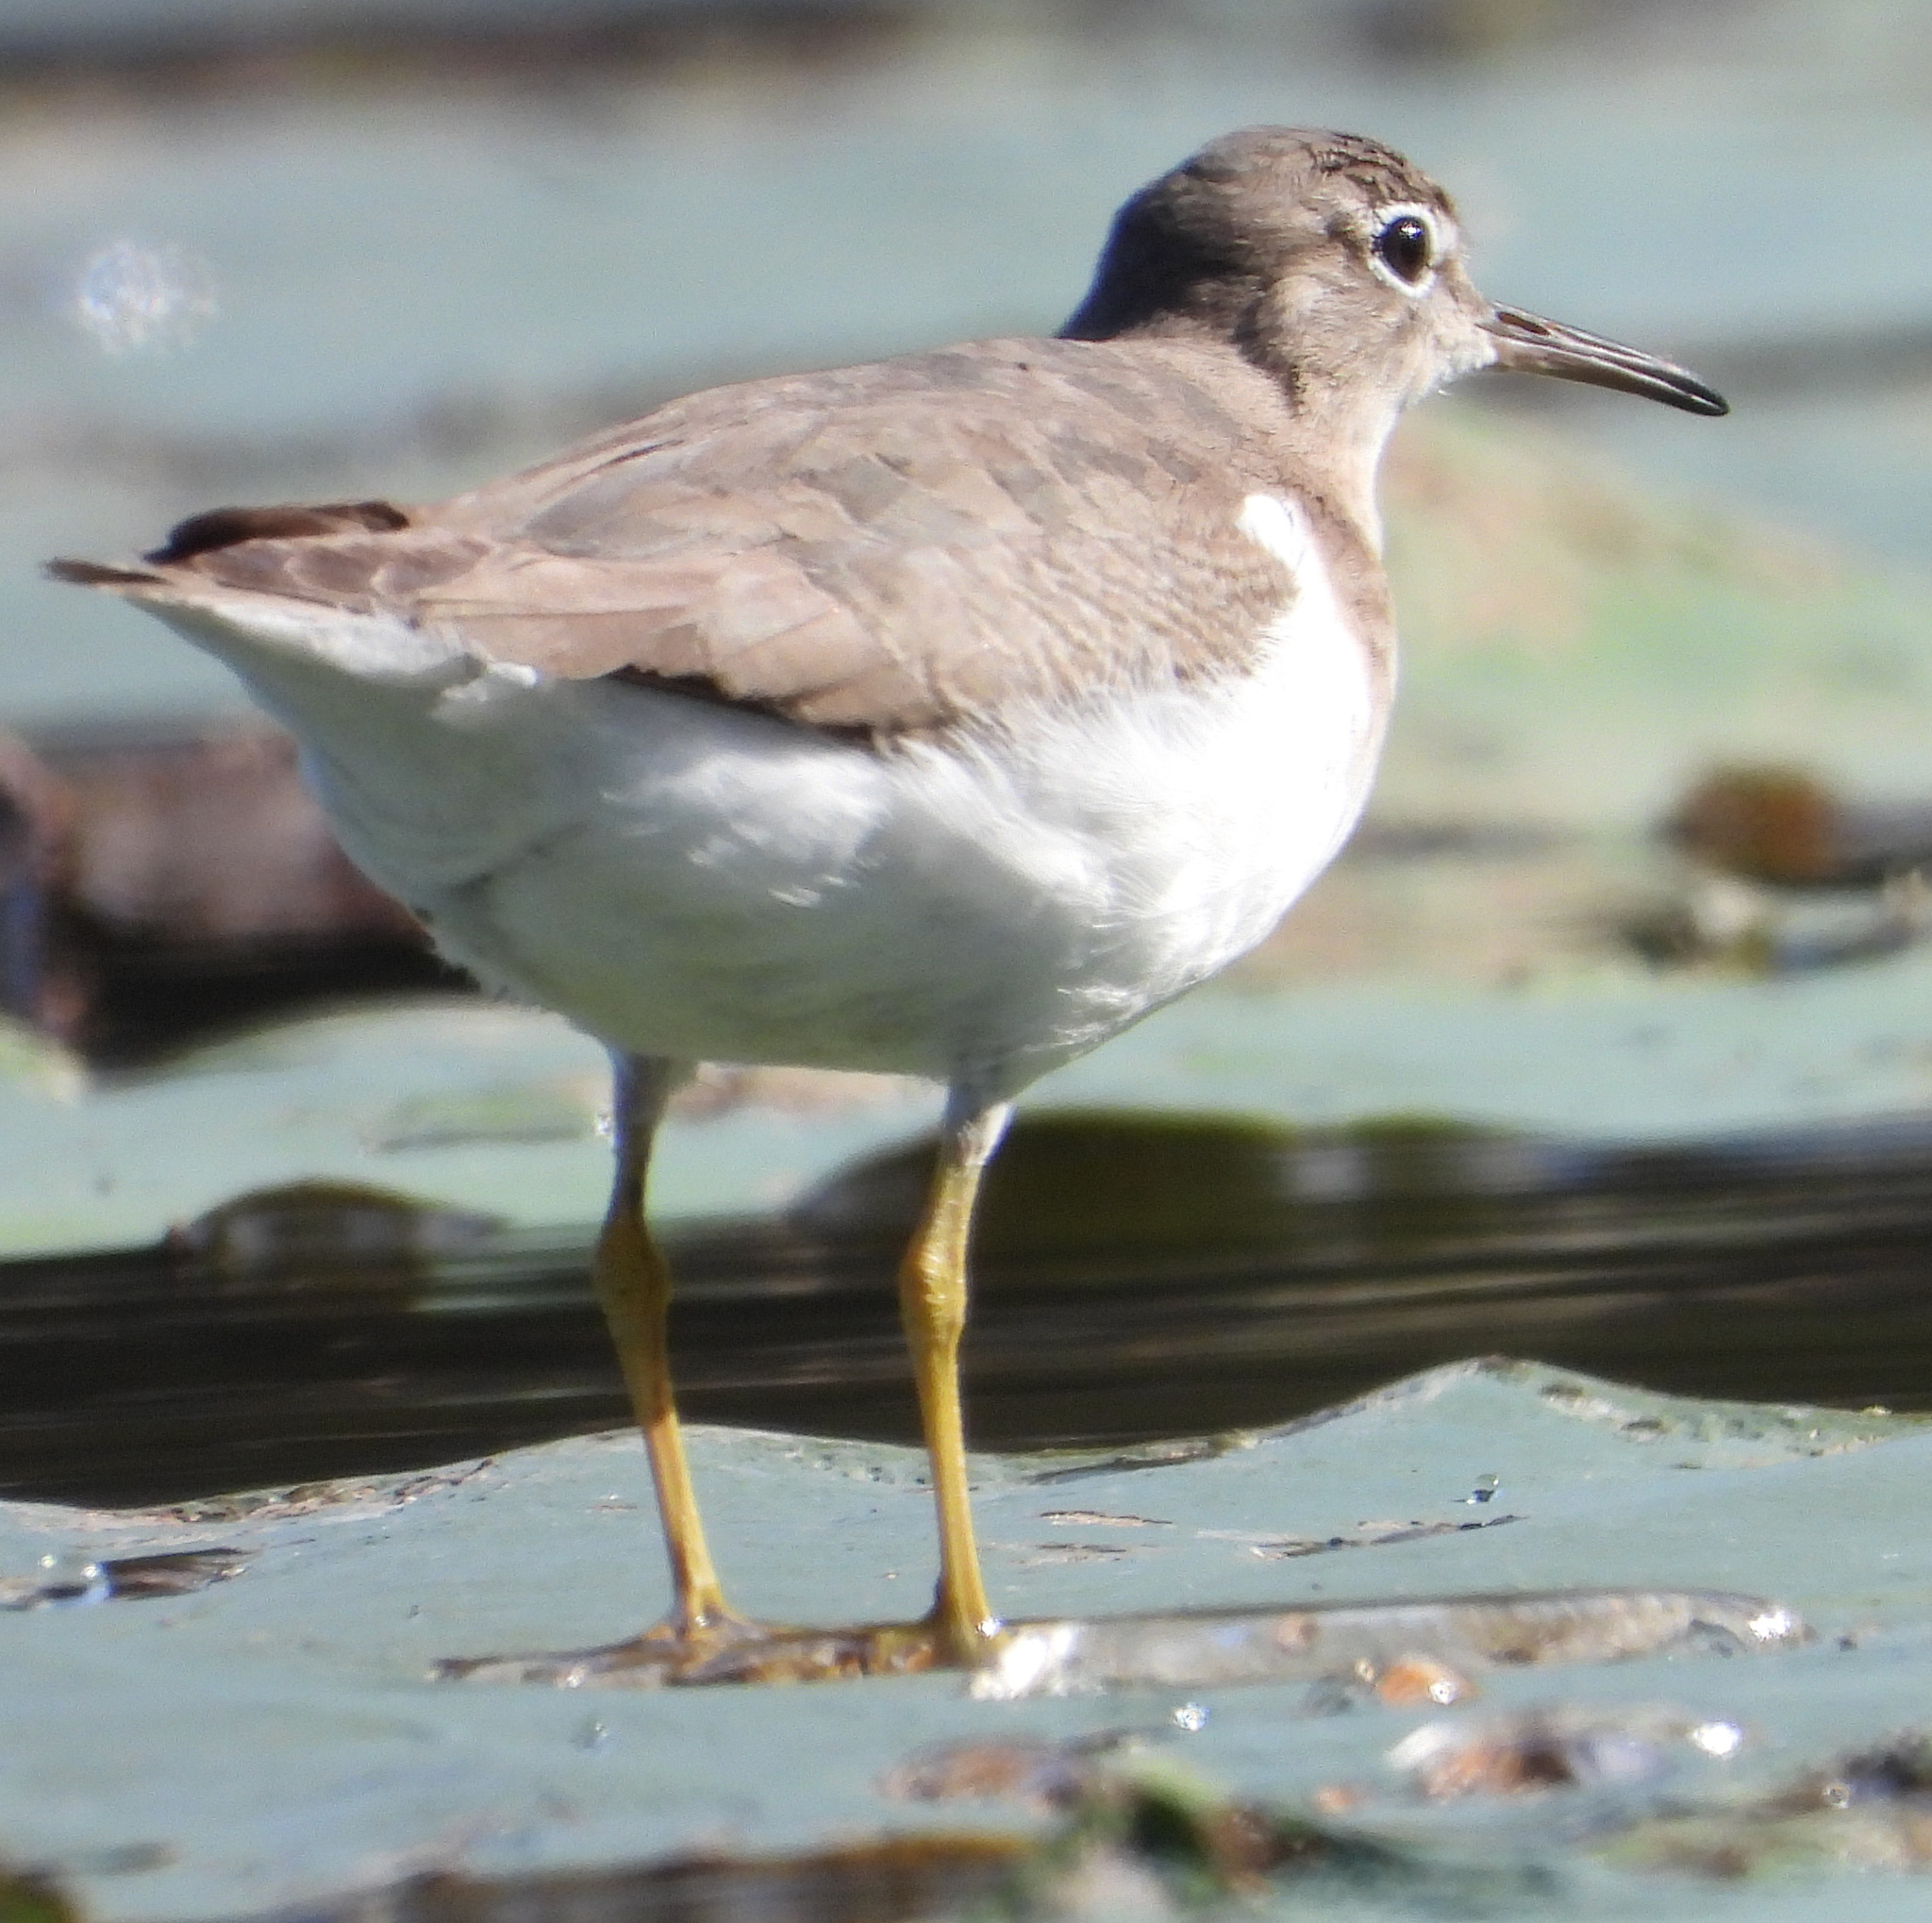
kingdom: Animalia
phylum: Chordata
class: Aves
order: Charadriiformes
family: Scolopacidae
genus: Actitis
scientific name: Actitis macularius
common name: Spotted sandpiper
